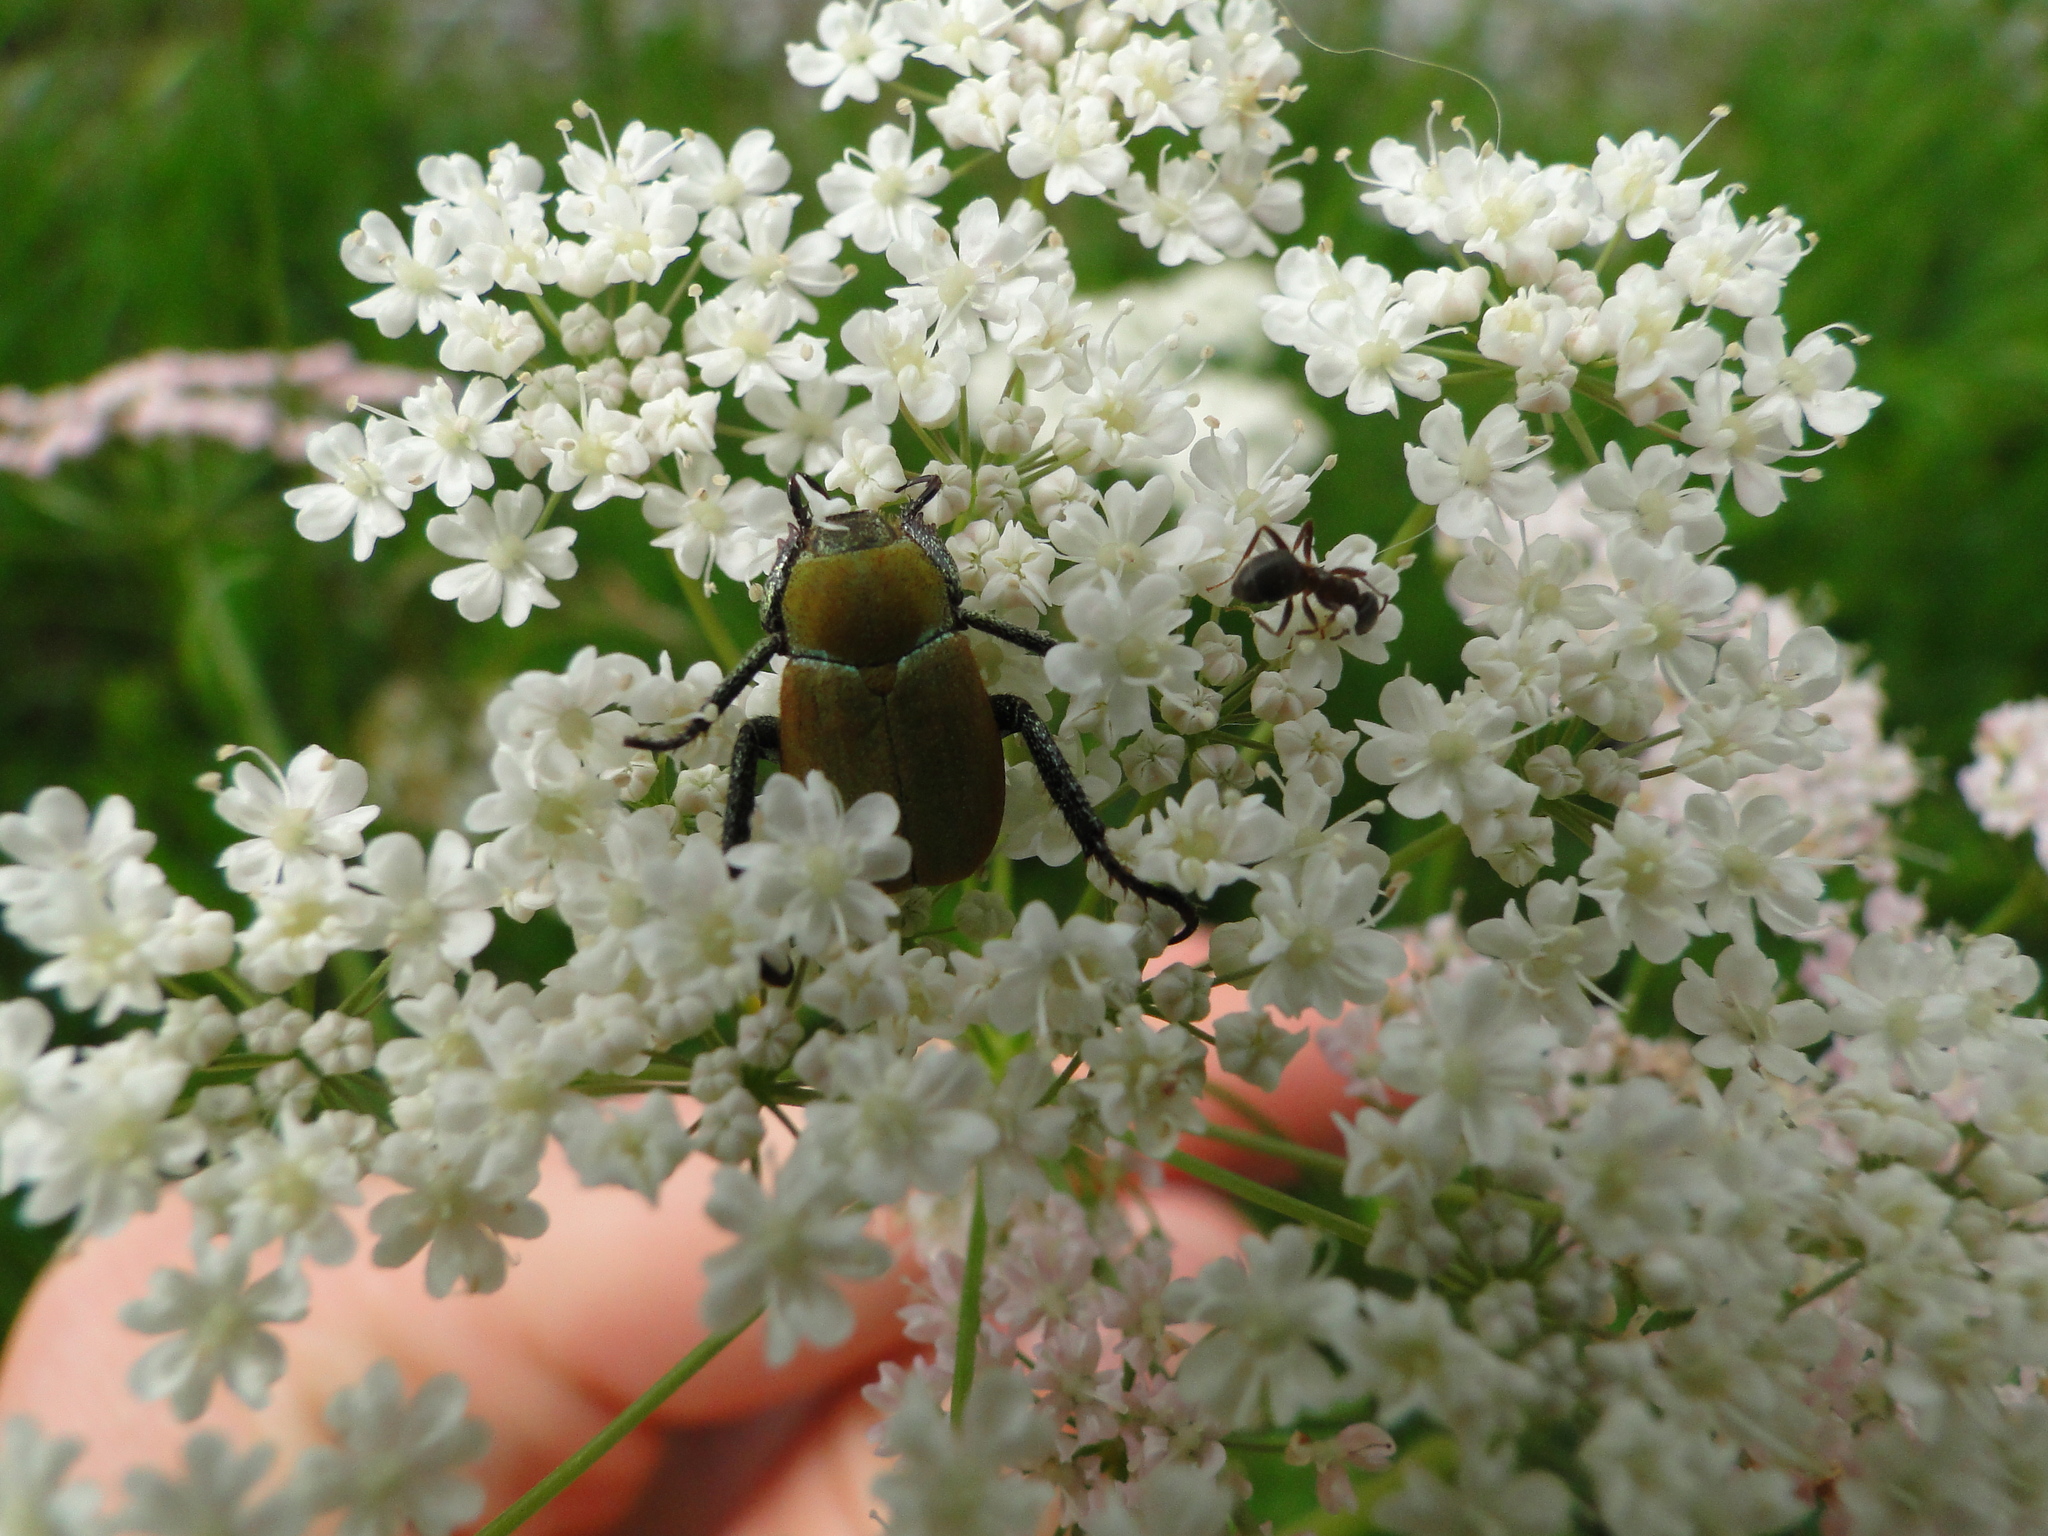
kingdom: Animalia
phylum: Arthropoda
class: Insecta
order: Coleoptera
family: Scarabaeidae
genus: Hoplia
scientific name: Hoplia argentea
